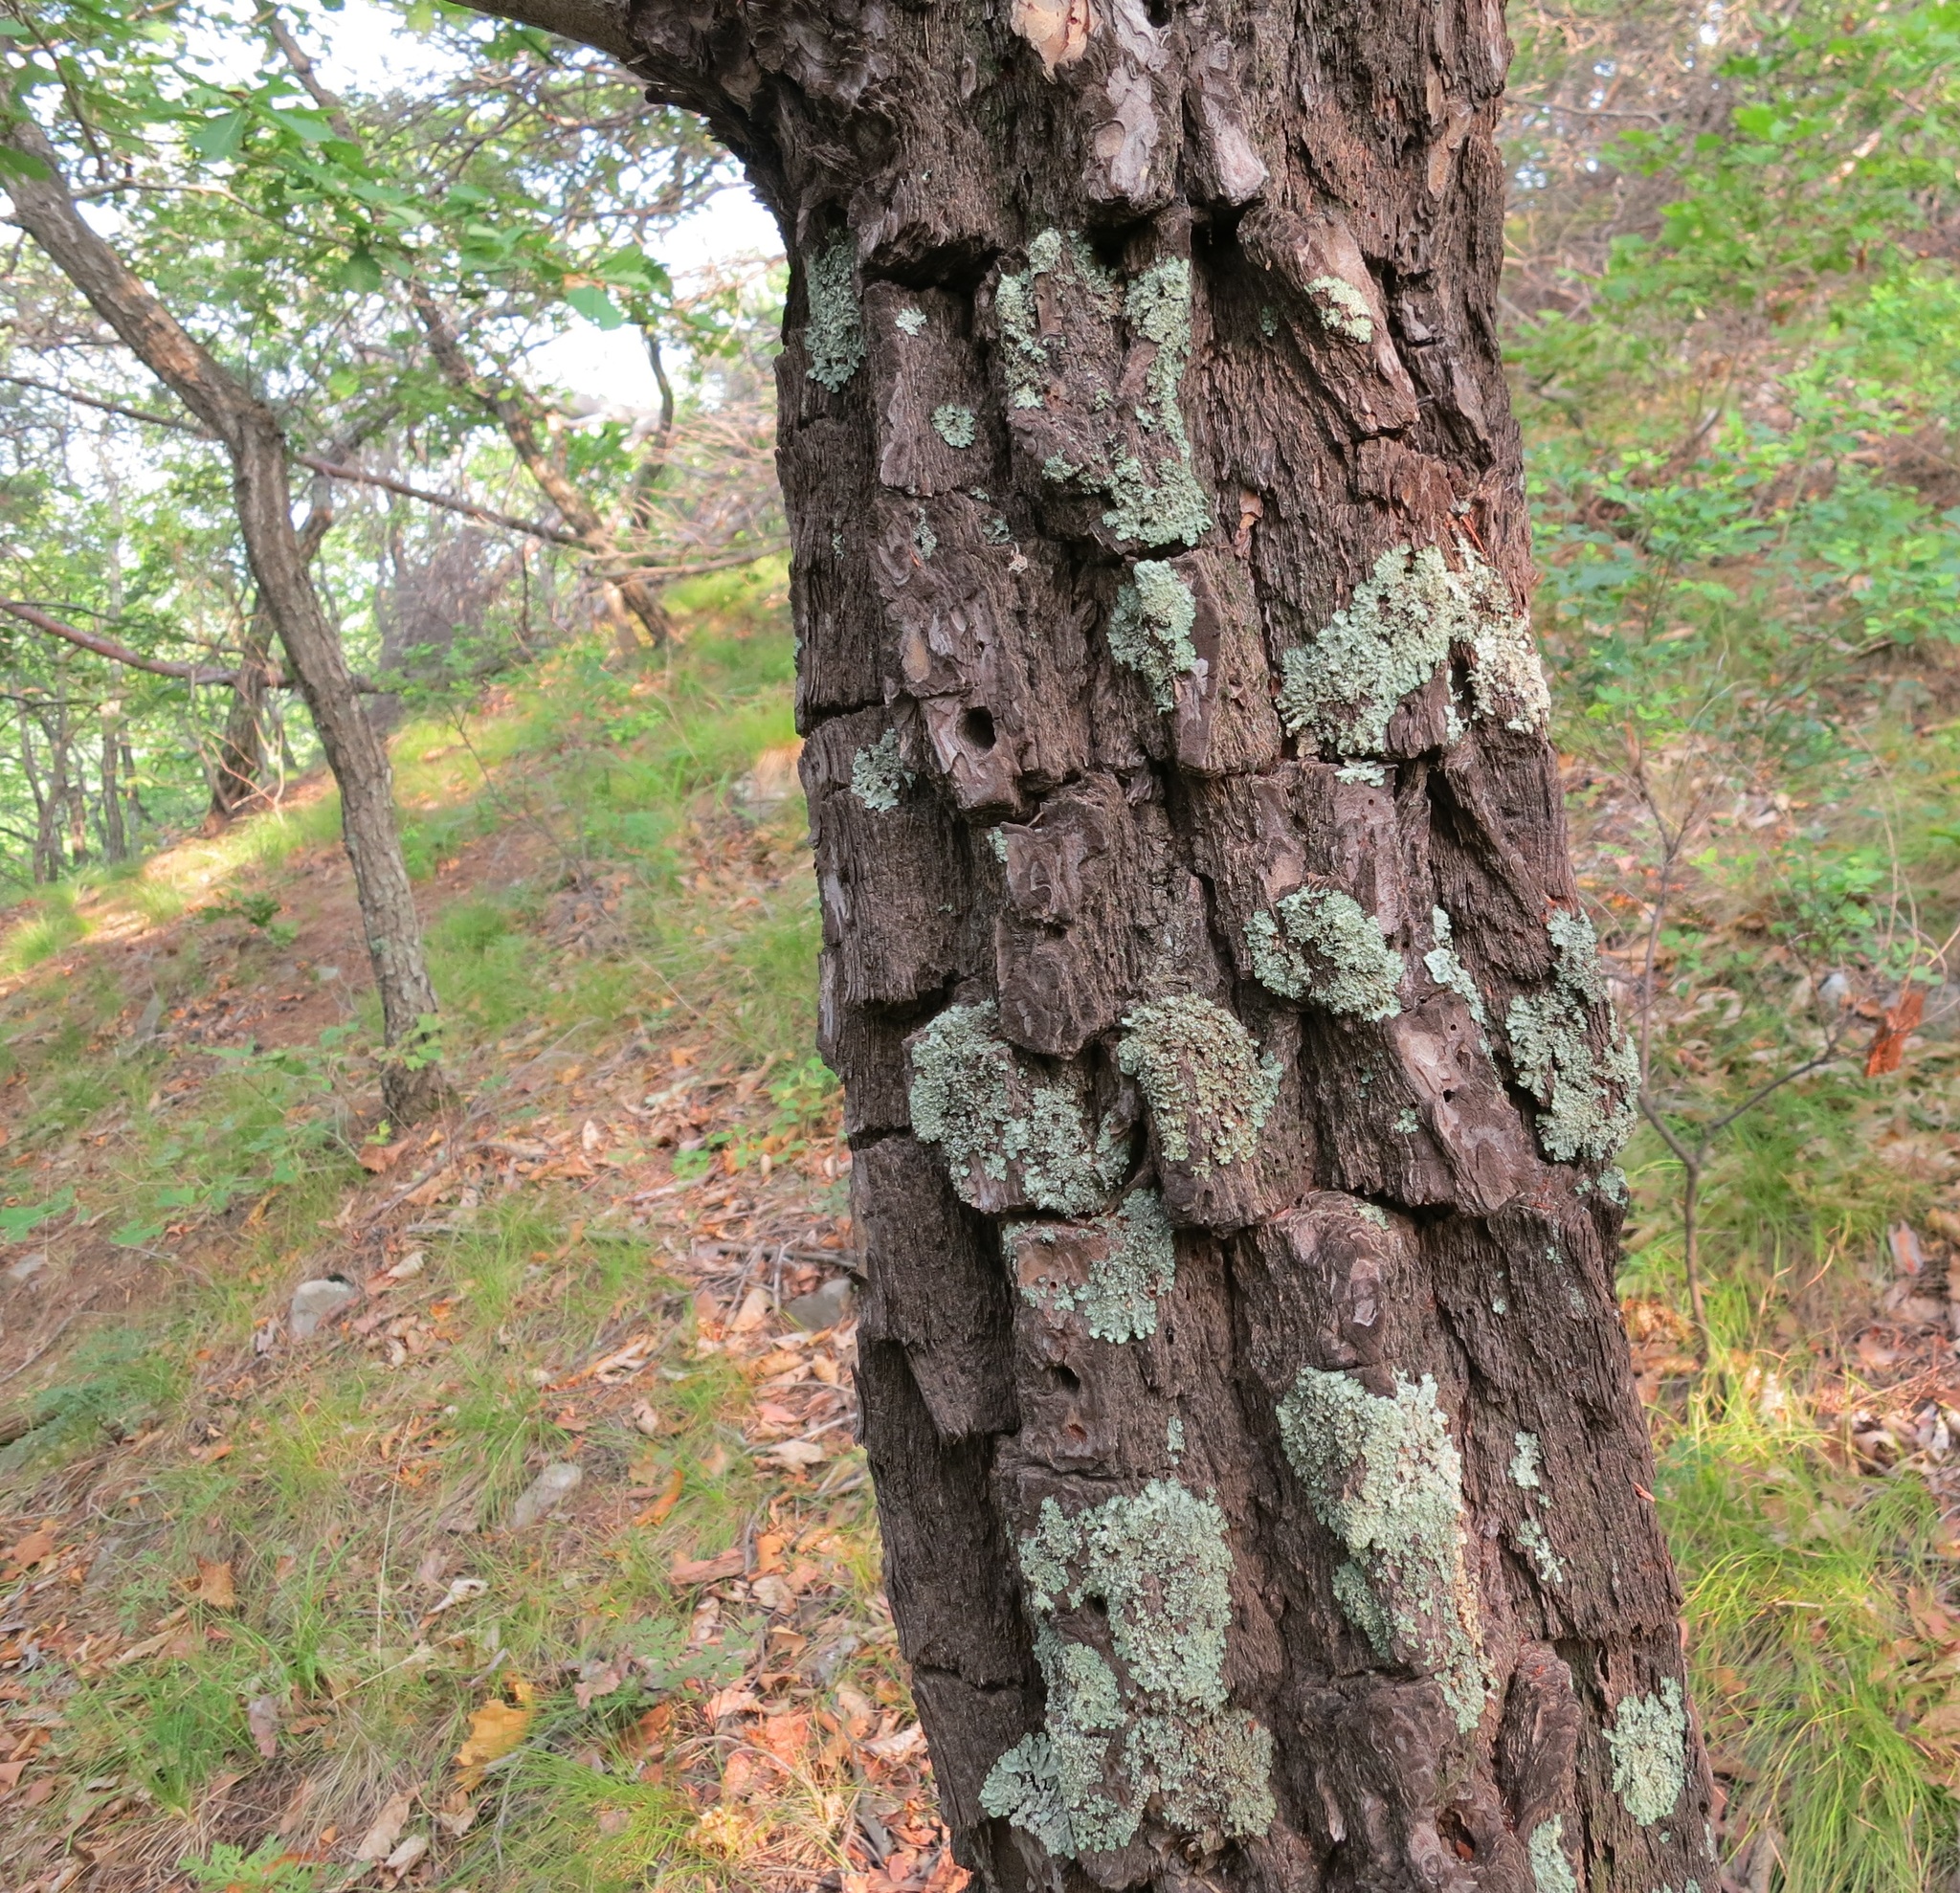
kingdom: Plantae
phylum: Tracheophyta
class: Pinopsida
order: Pinales
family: Pinaceae
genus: Pinus
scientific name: Pinus densiflora
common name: Japanese red pine
